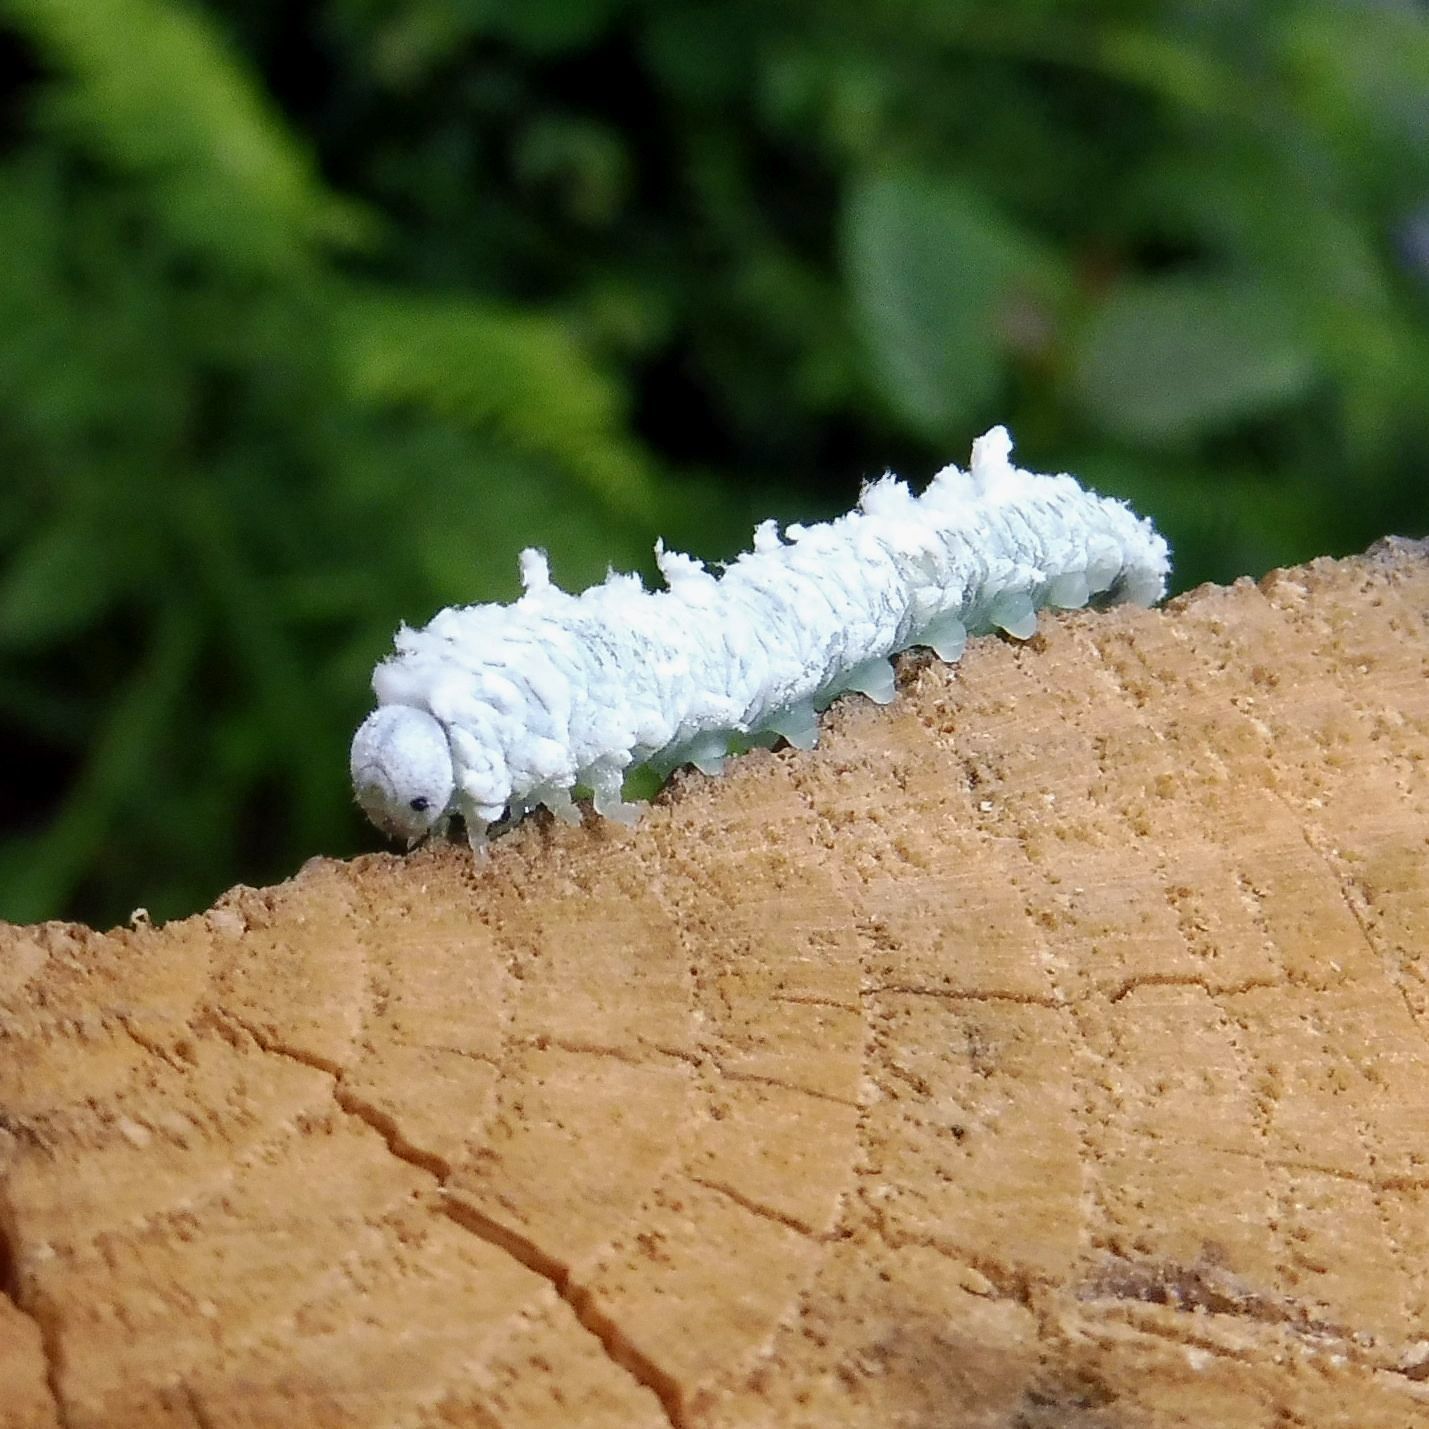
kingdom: Animalia
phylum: Arthropoda
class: Insecta
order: Hymenoptera
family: Tenthredinidae
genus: Eriocampa
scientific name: Eriocampa ovata
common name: Alder wooly sawfly
